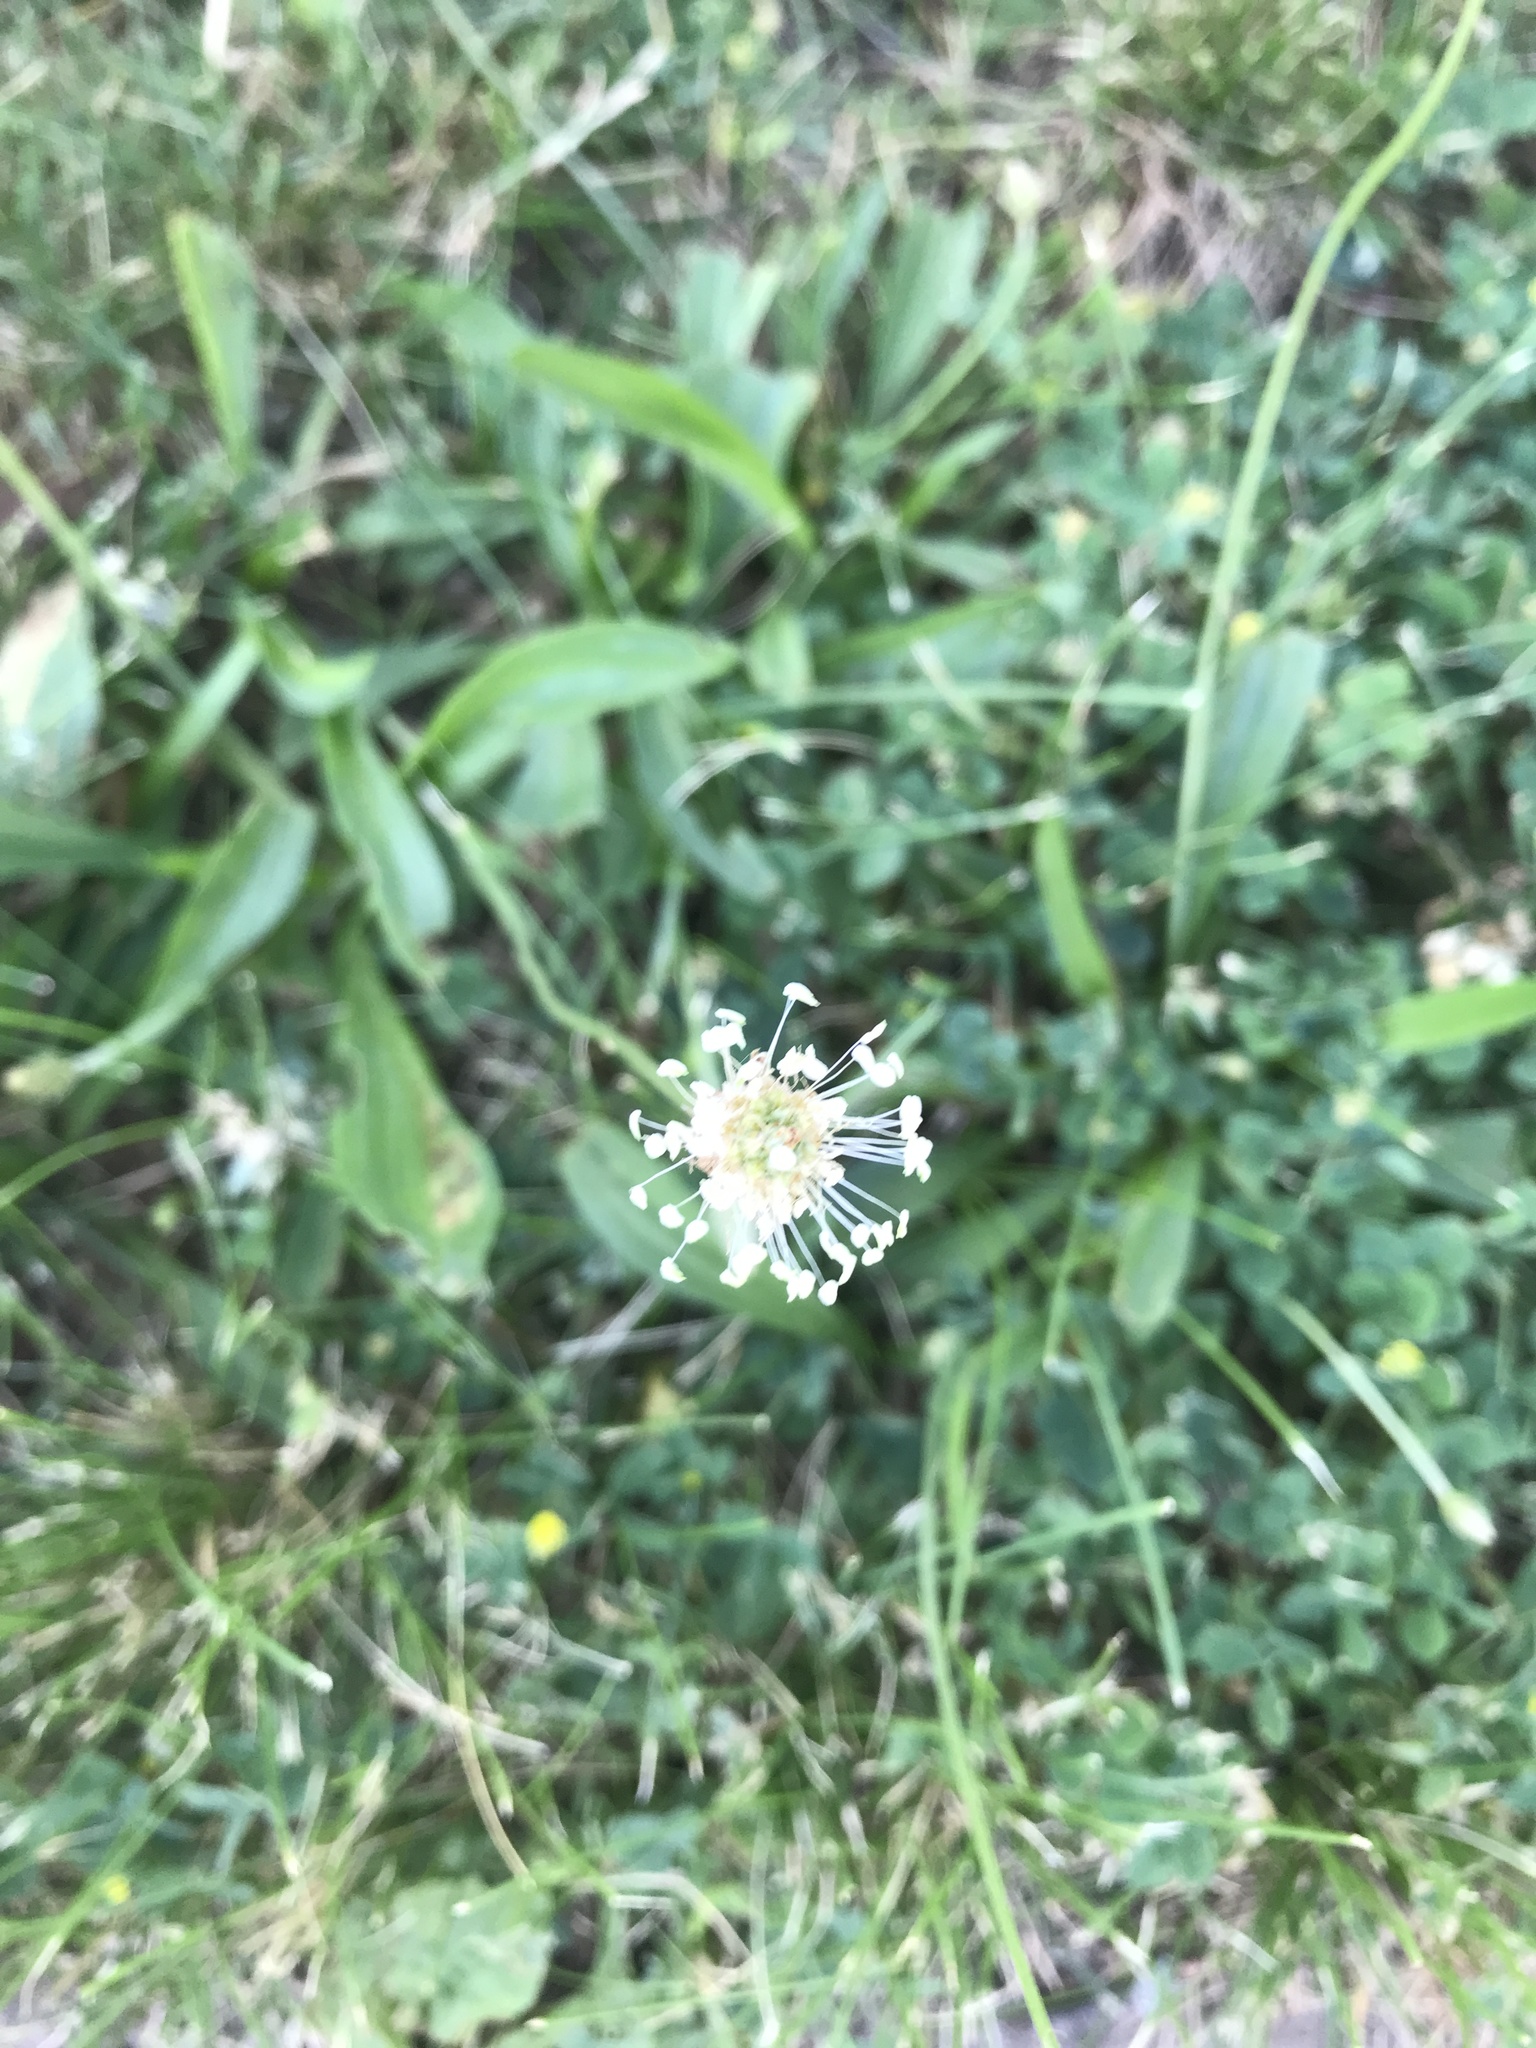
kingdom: Plantae
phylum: Tracheophyta
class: Magnoliopsida
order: Lamiales
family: Plantaginaceae
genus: Plantago
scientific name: Plantago lanceolata
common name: Ribwort plantain
